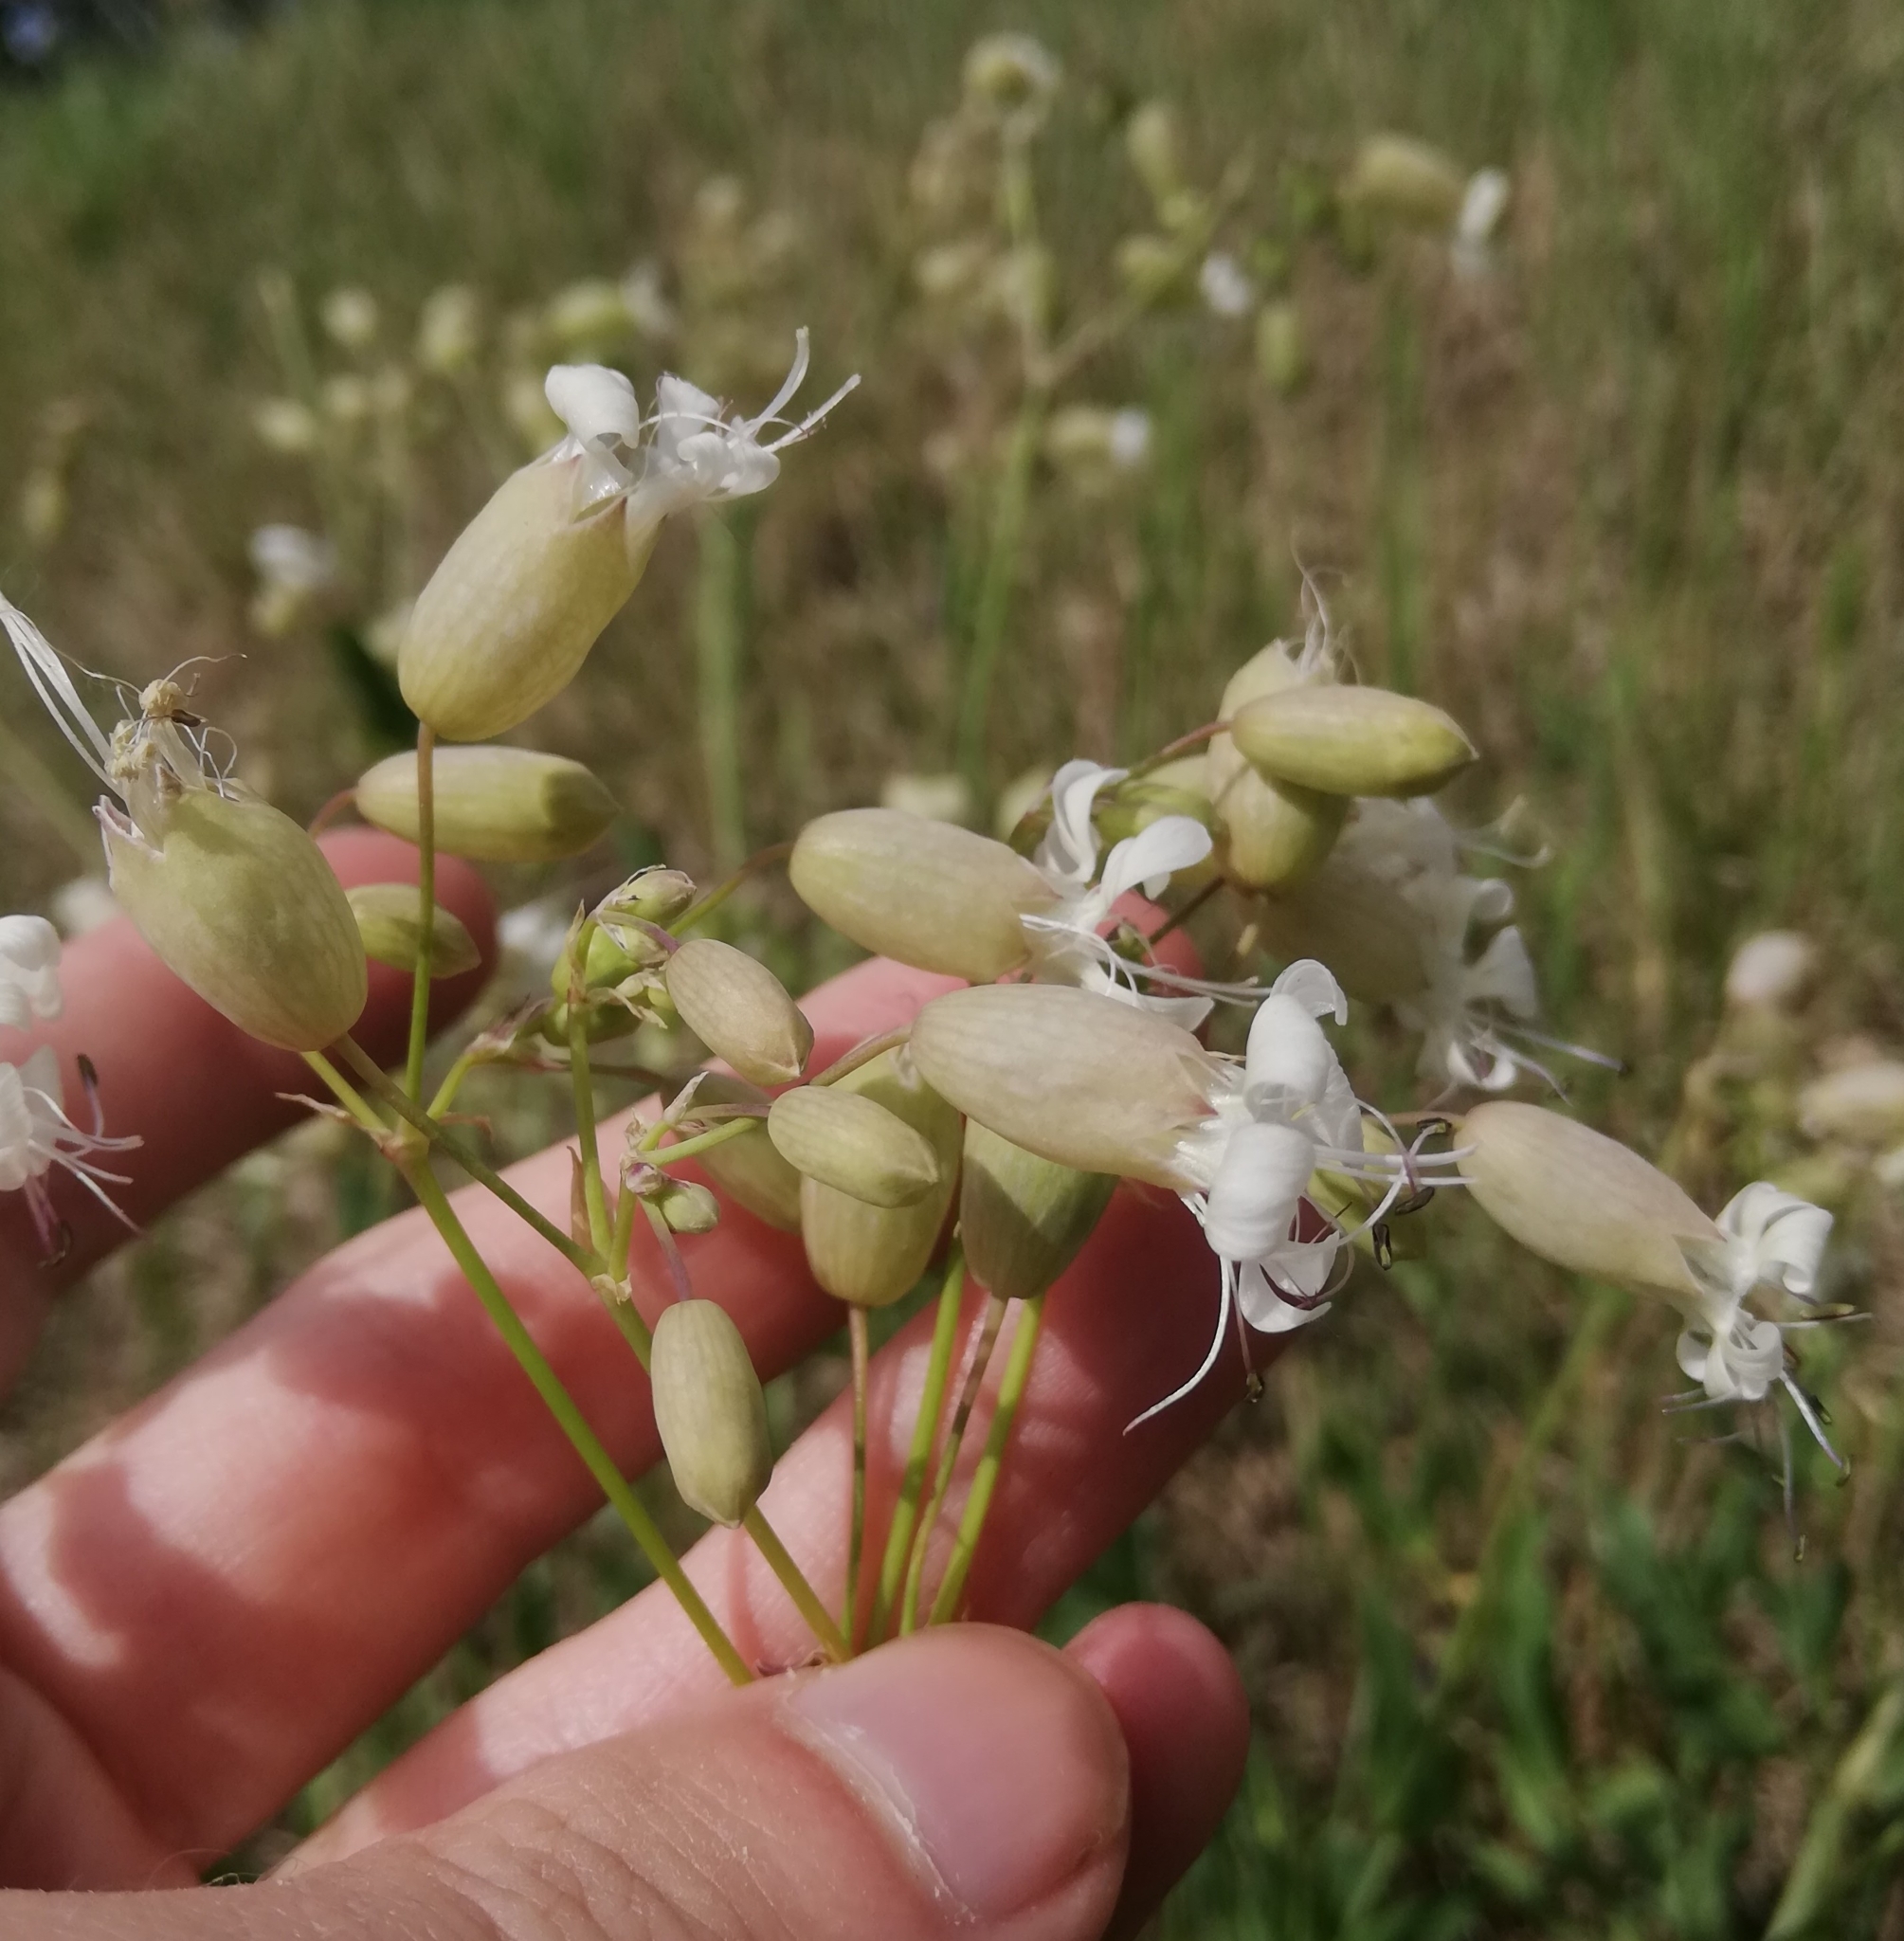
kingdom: Plantae
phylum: Tracheophyta
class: Magnoliopsida
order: Caryophyllales
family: Caryophyllaceae
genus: Silene
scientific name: Silene vulgaris
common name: Bladder campion
